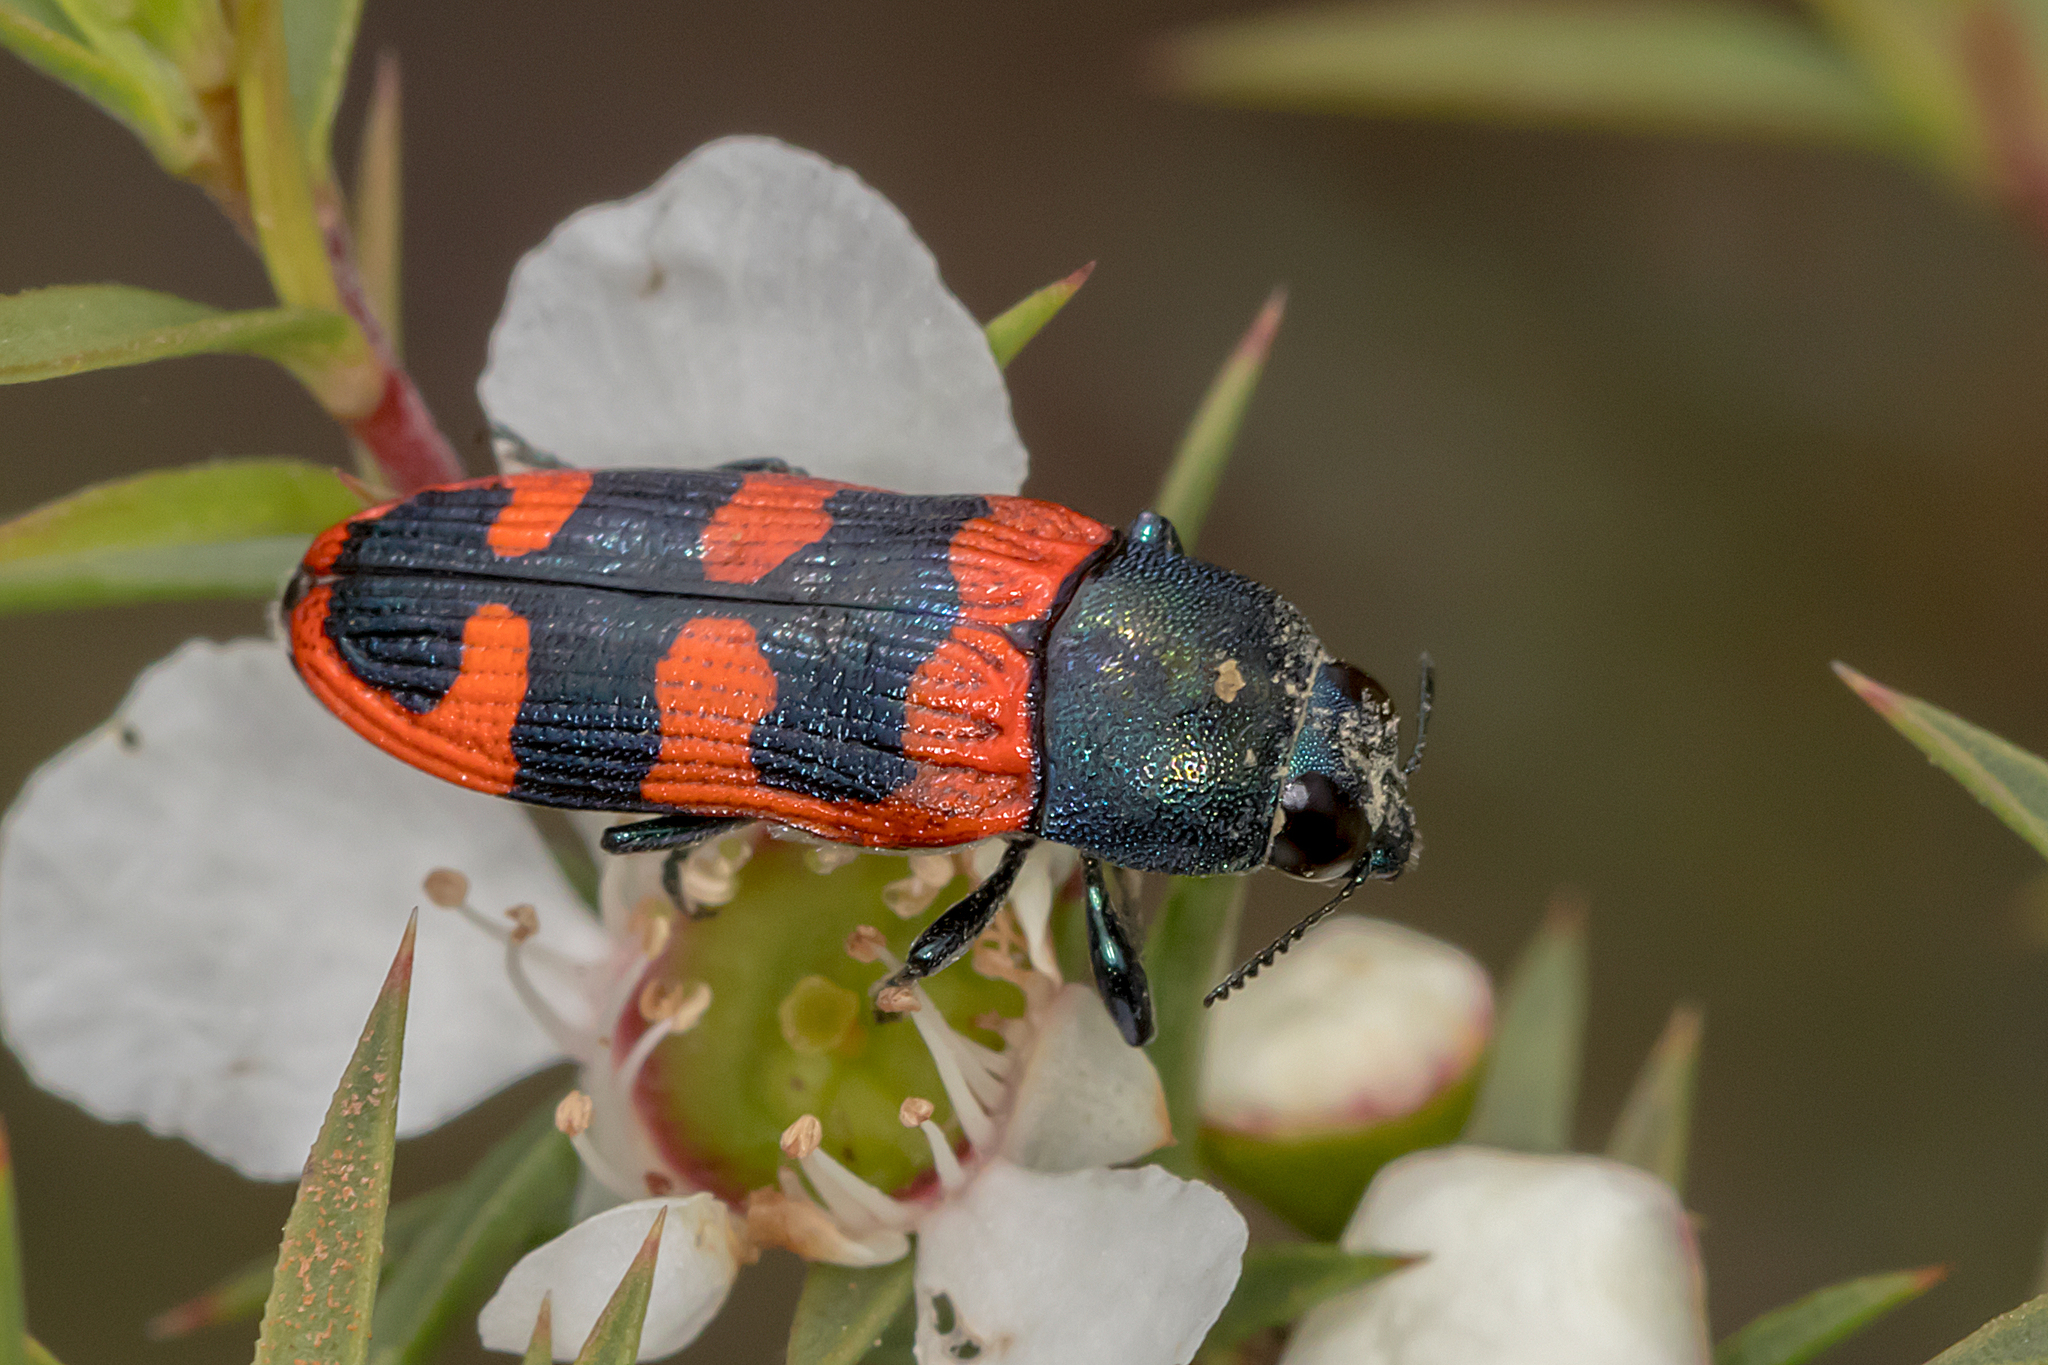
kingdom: Animalia
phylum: Arthropoda
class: Insecta
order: Coleoptera
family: Buprestidae
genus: Castiarina
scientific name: Castiarina crenata
